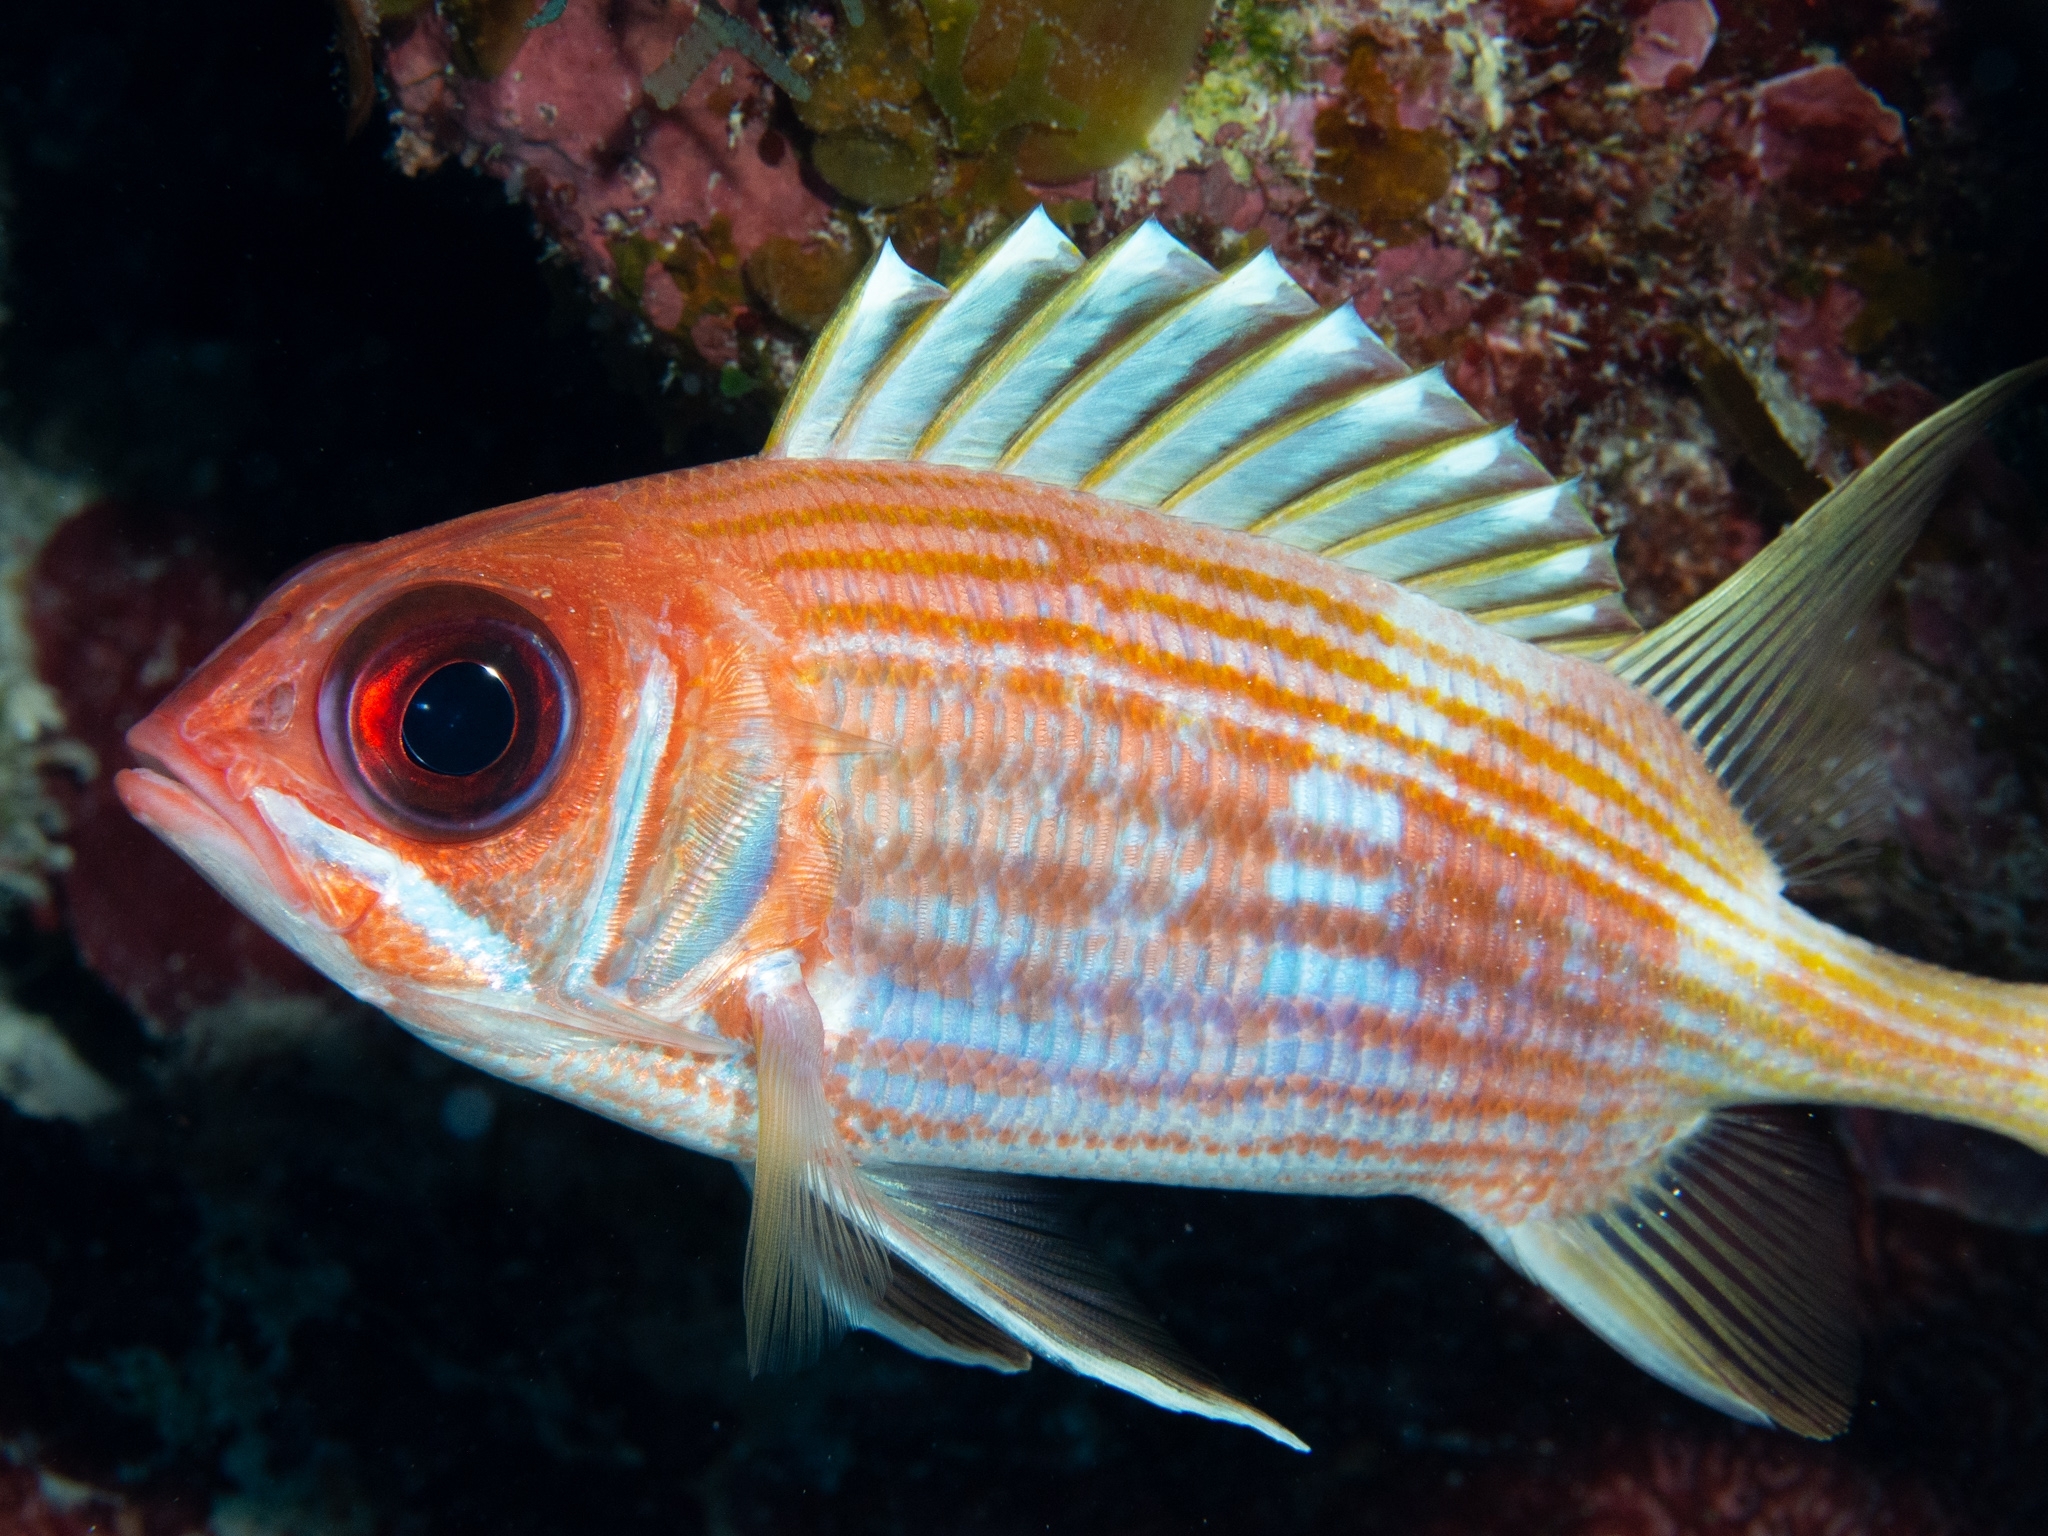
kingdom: Animalia
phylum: Chordata
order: Beryciformes
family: Holocentridae
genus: Holocentrus
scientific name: Holocentrus rufus
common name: Longspine squirrelfish
